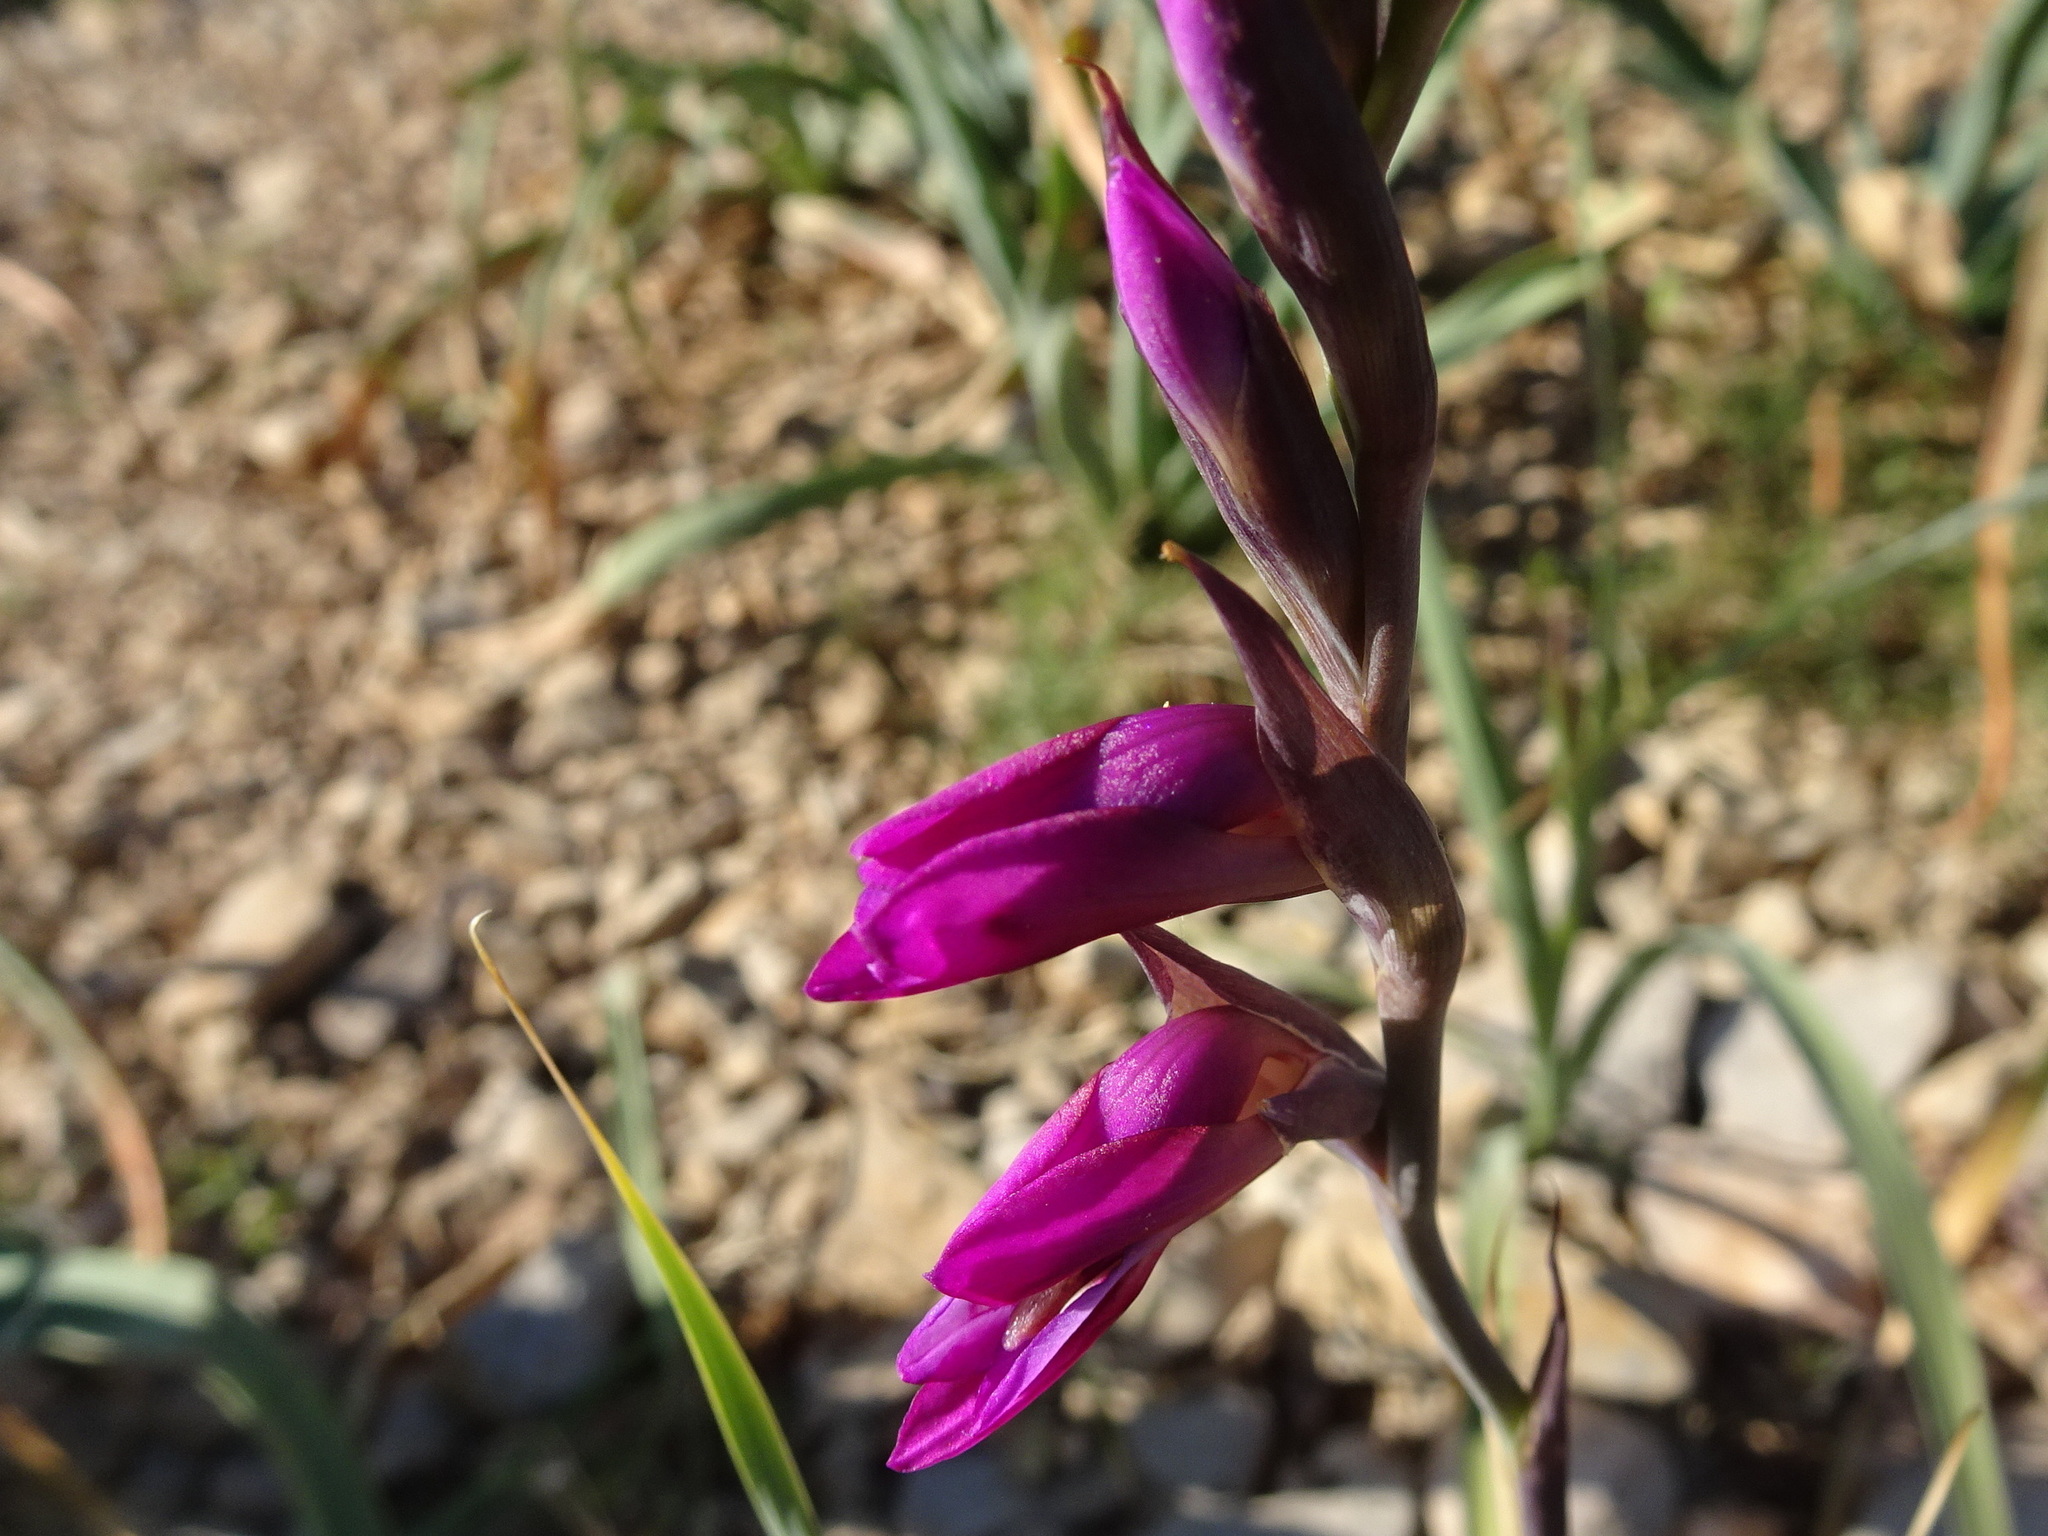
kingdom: Plantae
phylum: Tracheophyta
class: Liliopsida
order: Asparagales
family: Iridaceae
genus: Gladiolus
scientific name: Gladiolus italicus
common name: Field gladiolus
